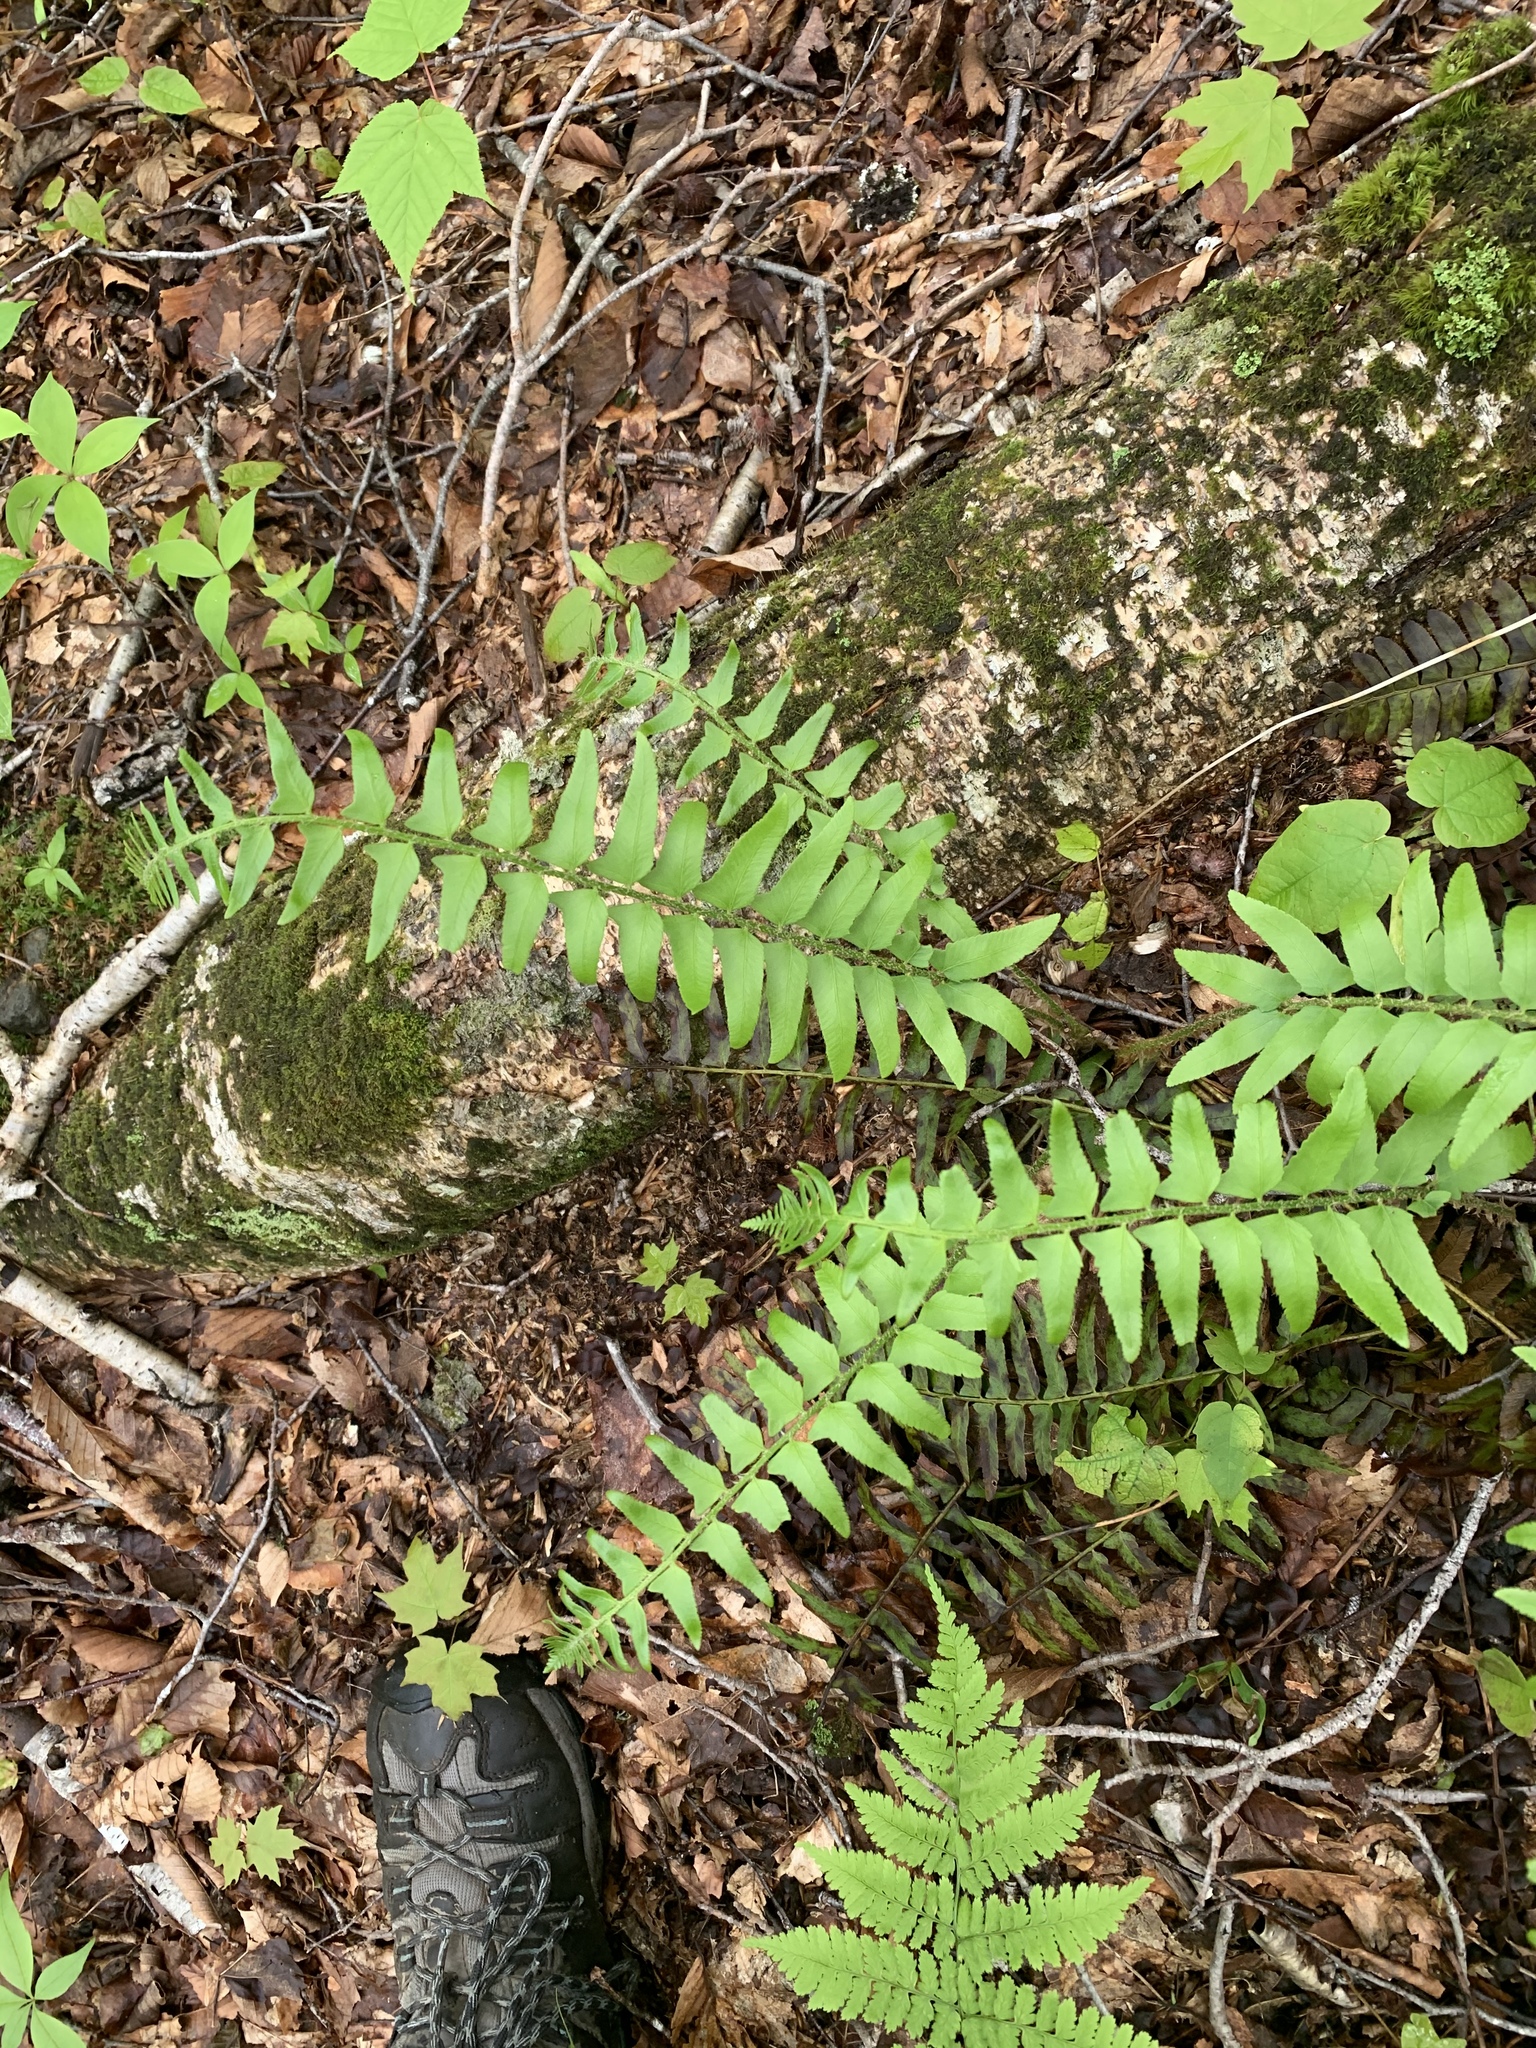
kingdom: Plantae
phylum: Tracheophyta
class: Polypodiopsida
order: Polypodiales
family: Dryopteridaceae
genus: Polystichum
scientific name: Polystichum acrostichoides
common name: Christmas fern
